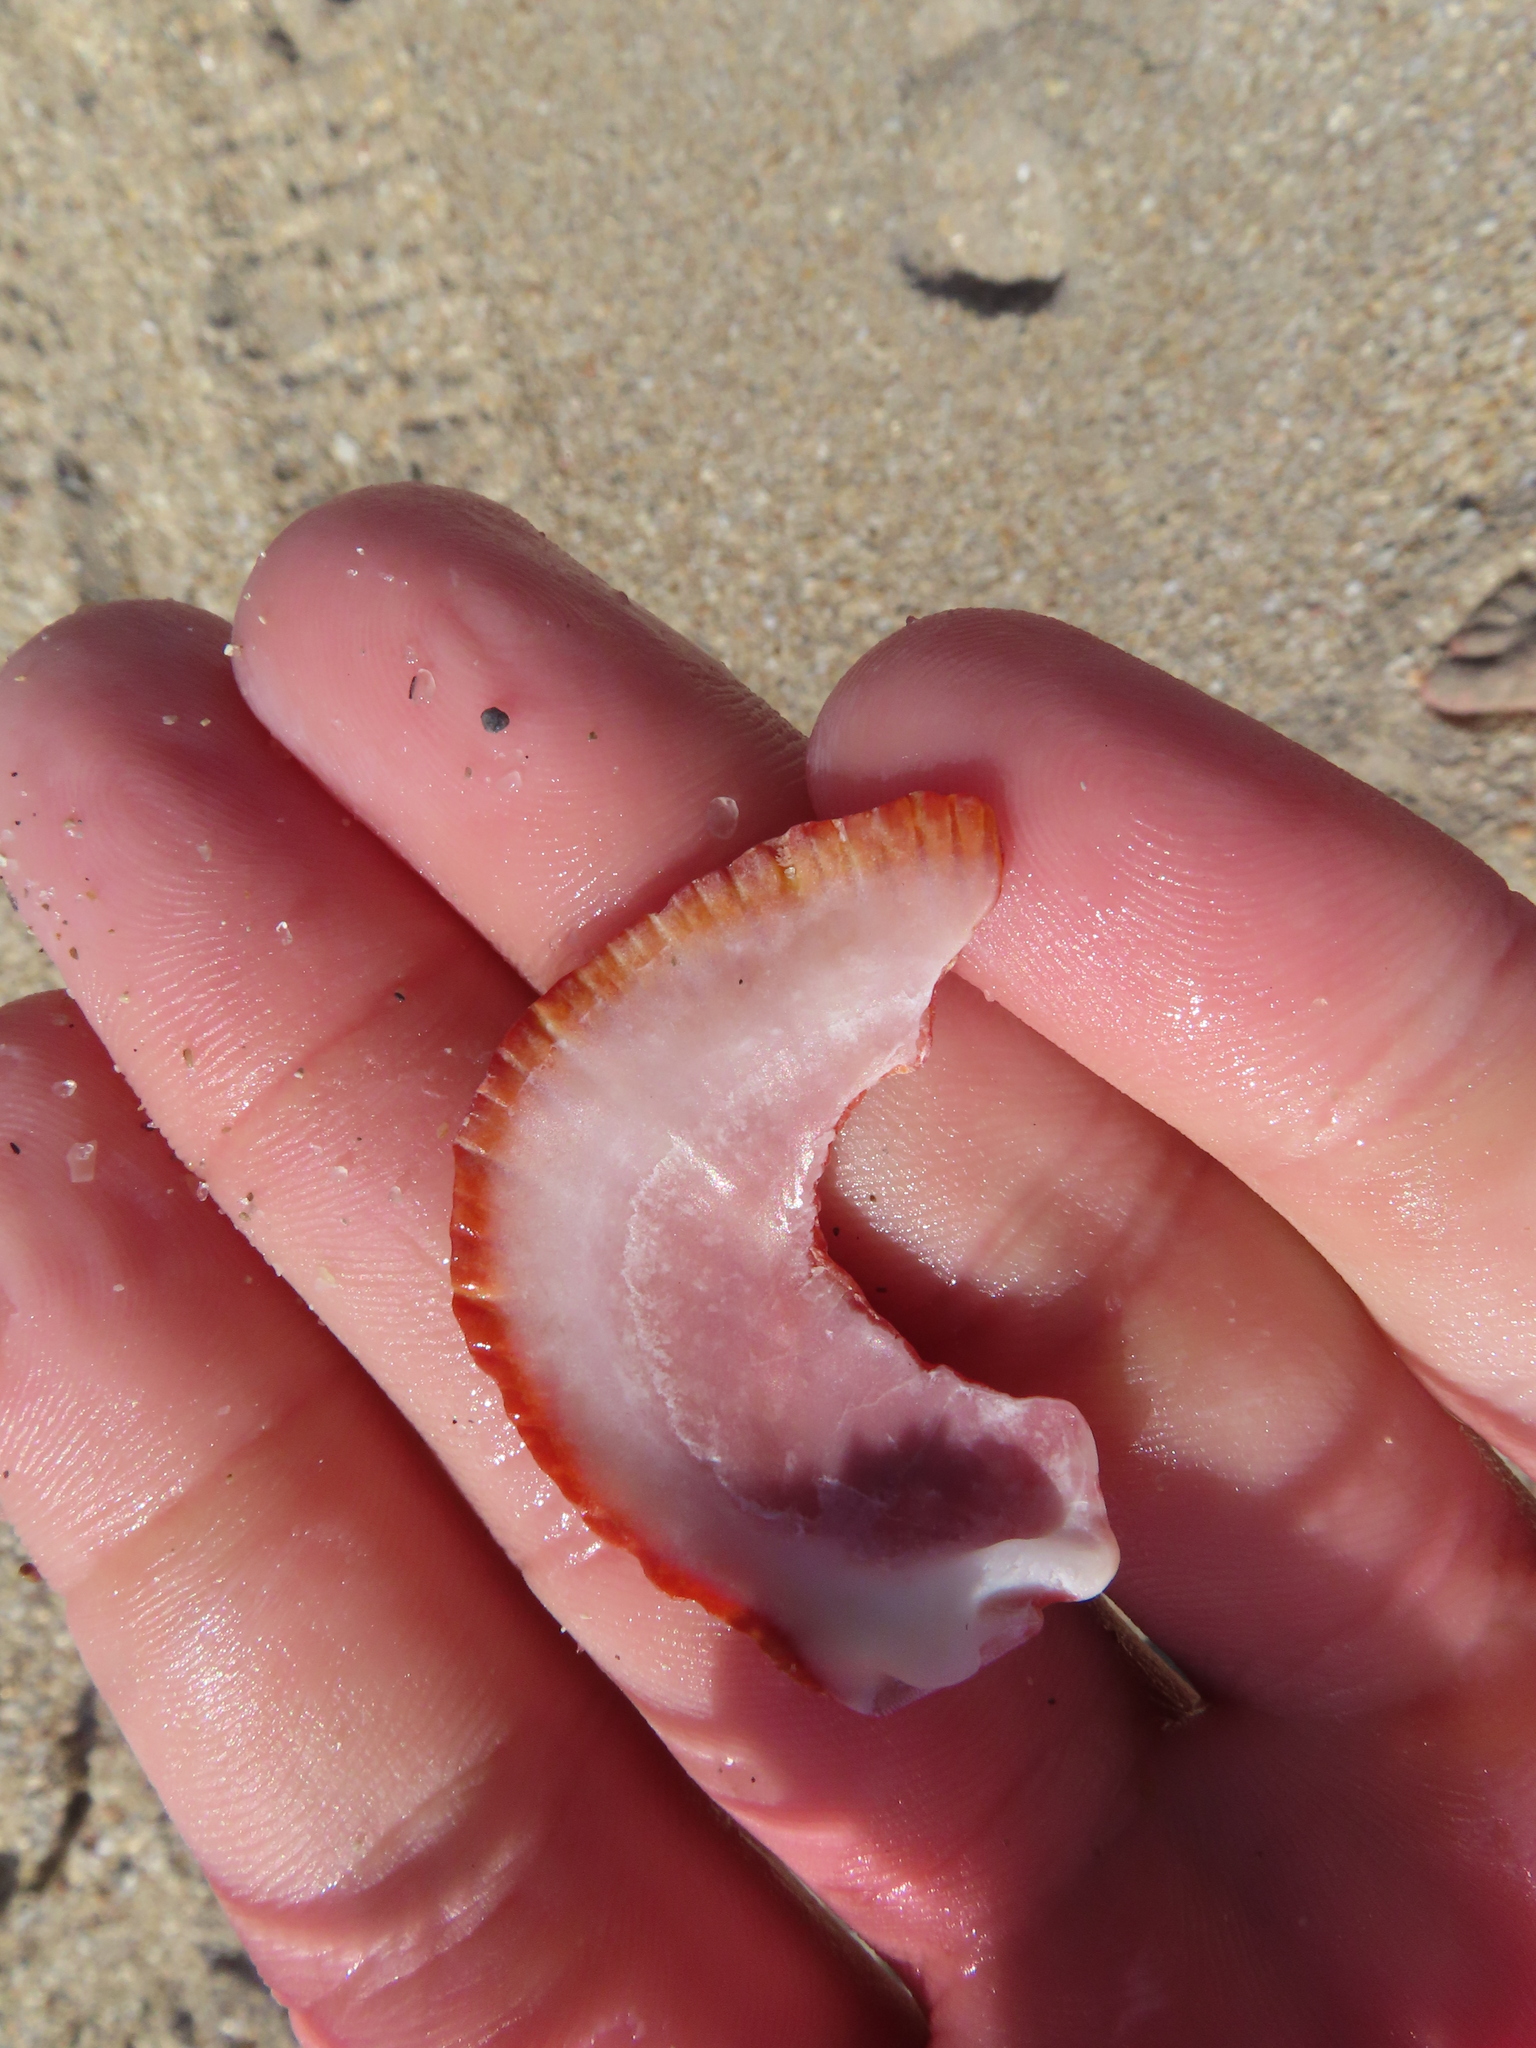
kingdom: Animalia
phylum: Mollusca
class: Bivalvia
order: Pectinida
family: Spondylidae
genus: Spondylus
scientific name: Spondylus tenuis
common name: Digitate thorny oyster
